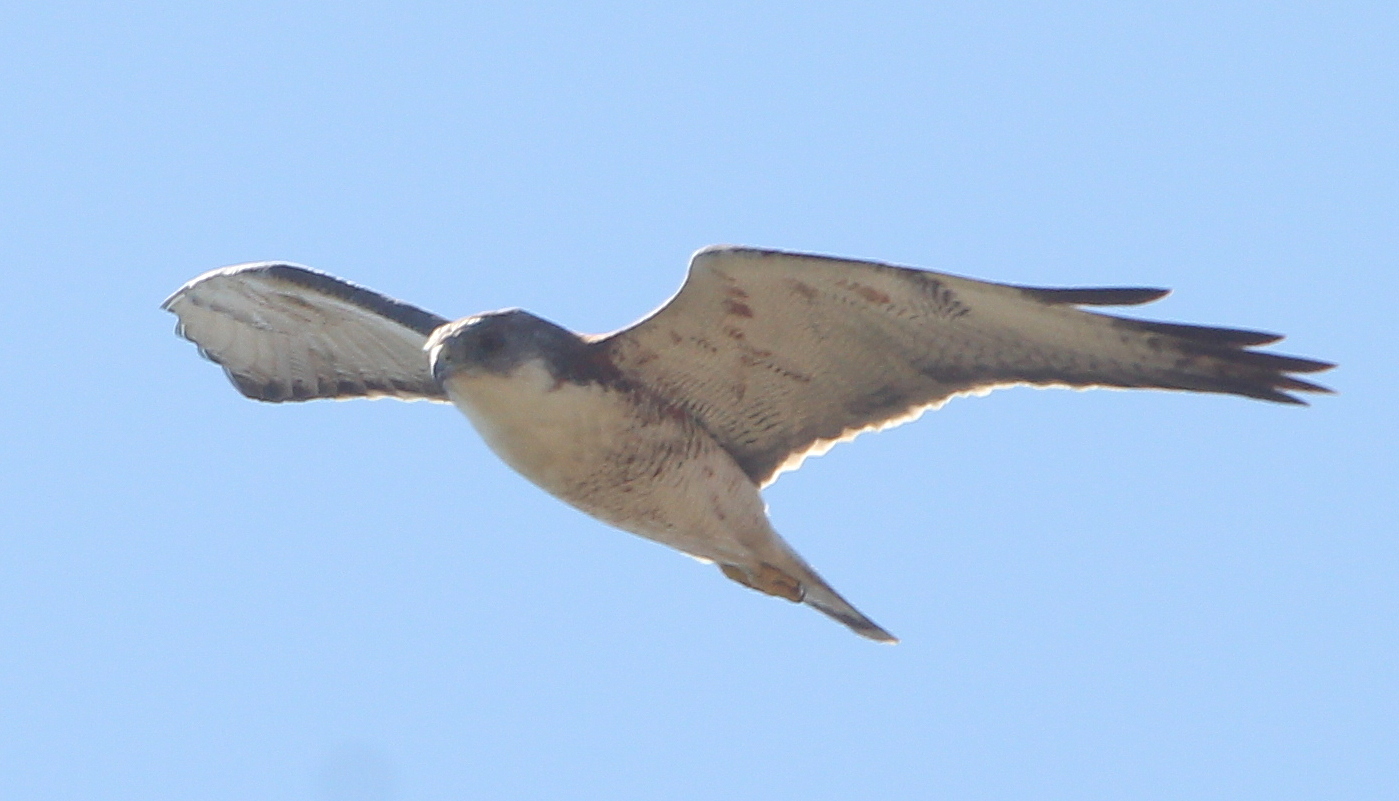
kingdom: Animalia
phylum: Chordata
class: Aves
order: Accipitriformes
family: Accipitridae
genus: Buteo
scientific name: Buteo polyosoma
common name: Variable hawk
